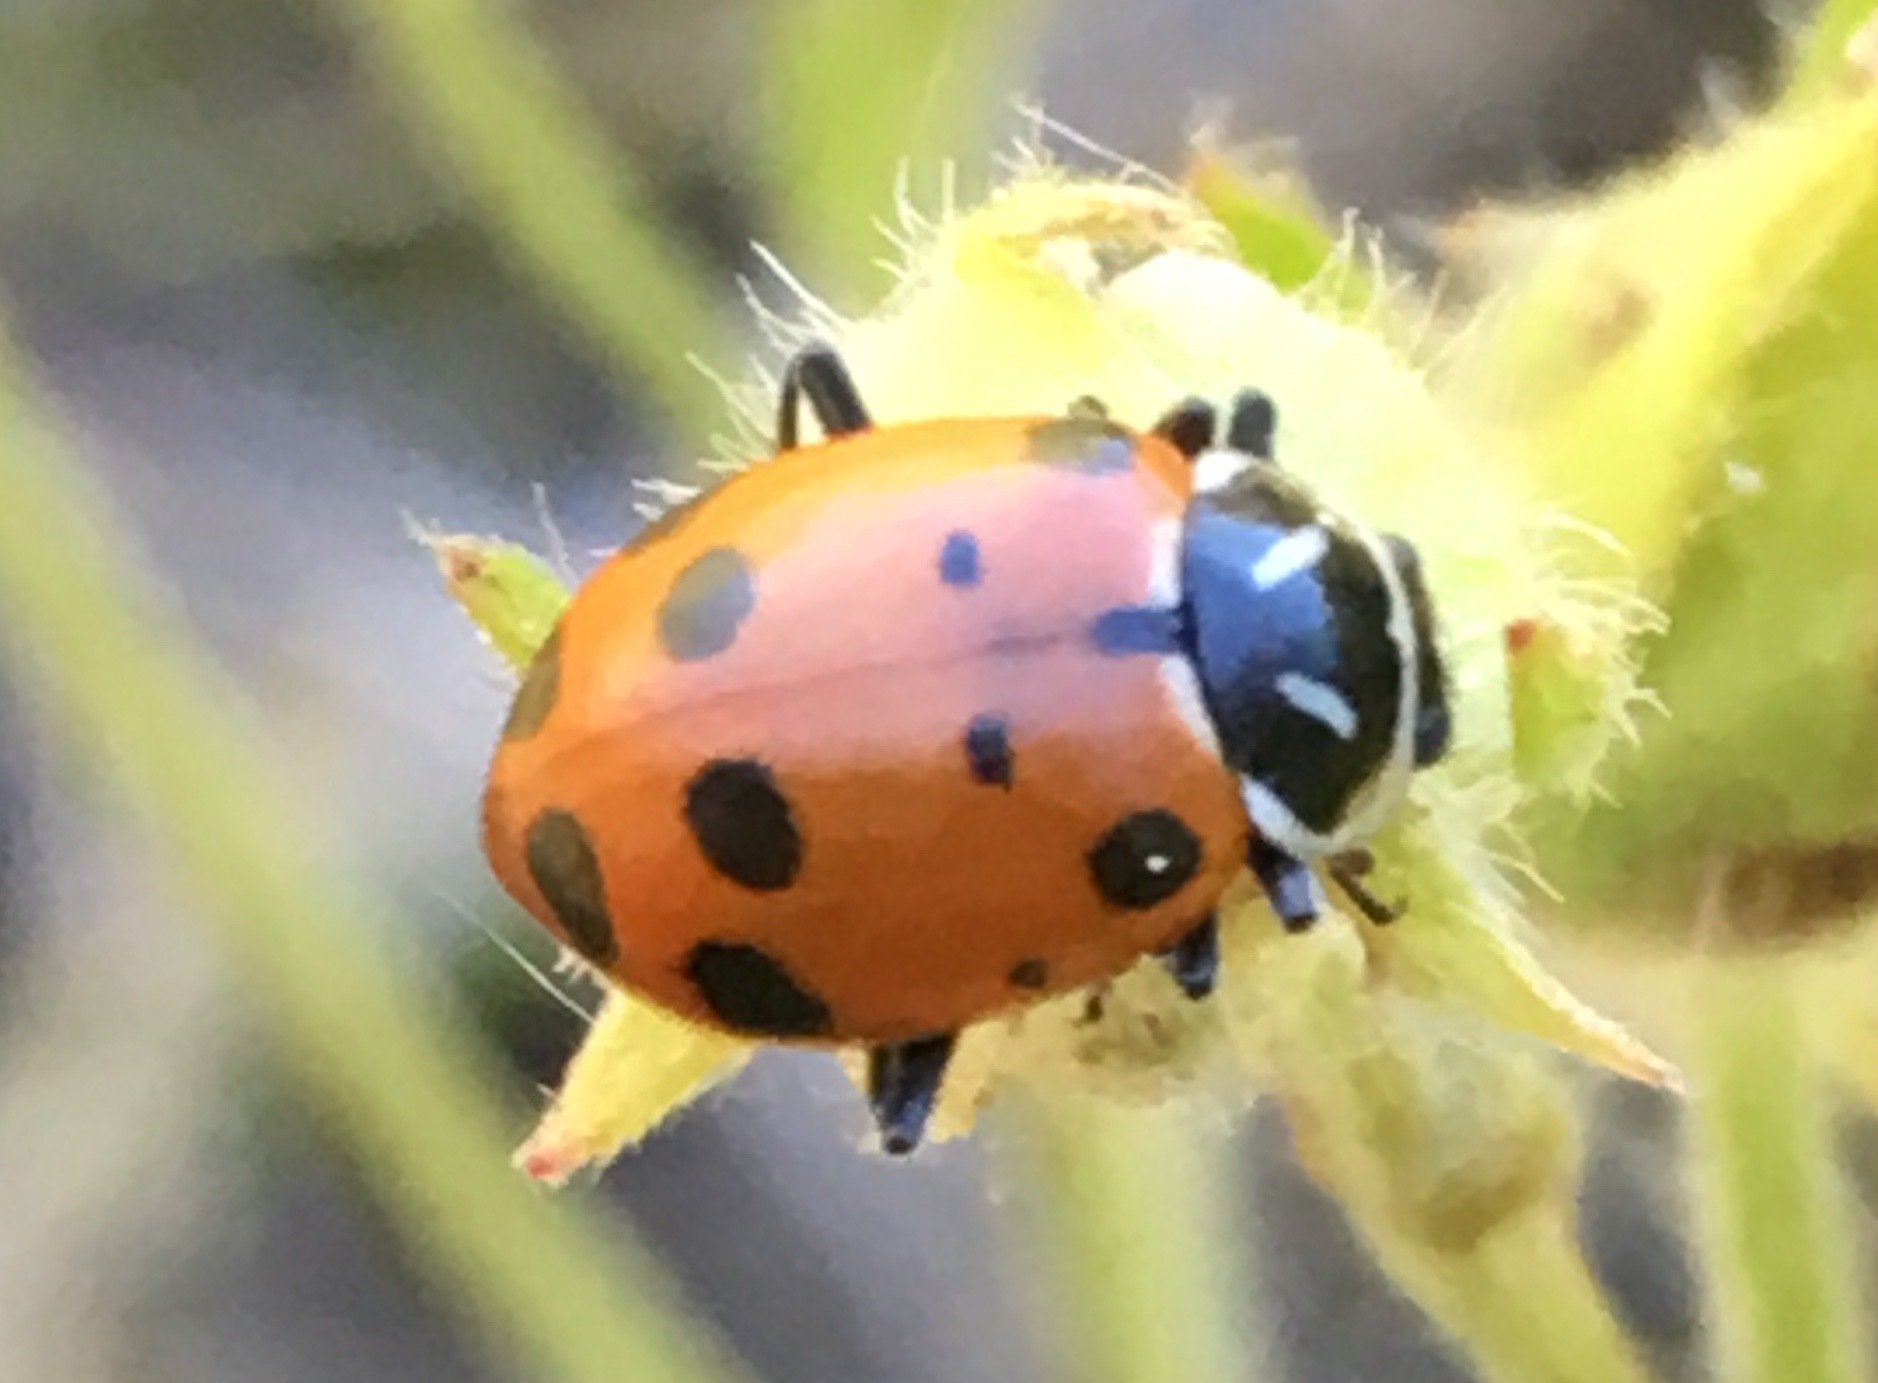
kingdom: Animalia
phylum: Arthropoda
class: Insecta
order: Coleoptera
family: Coccinellidae
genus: Hippodamia
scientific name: Hippodamia convergens
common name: Convergent lady beetle
